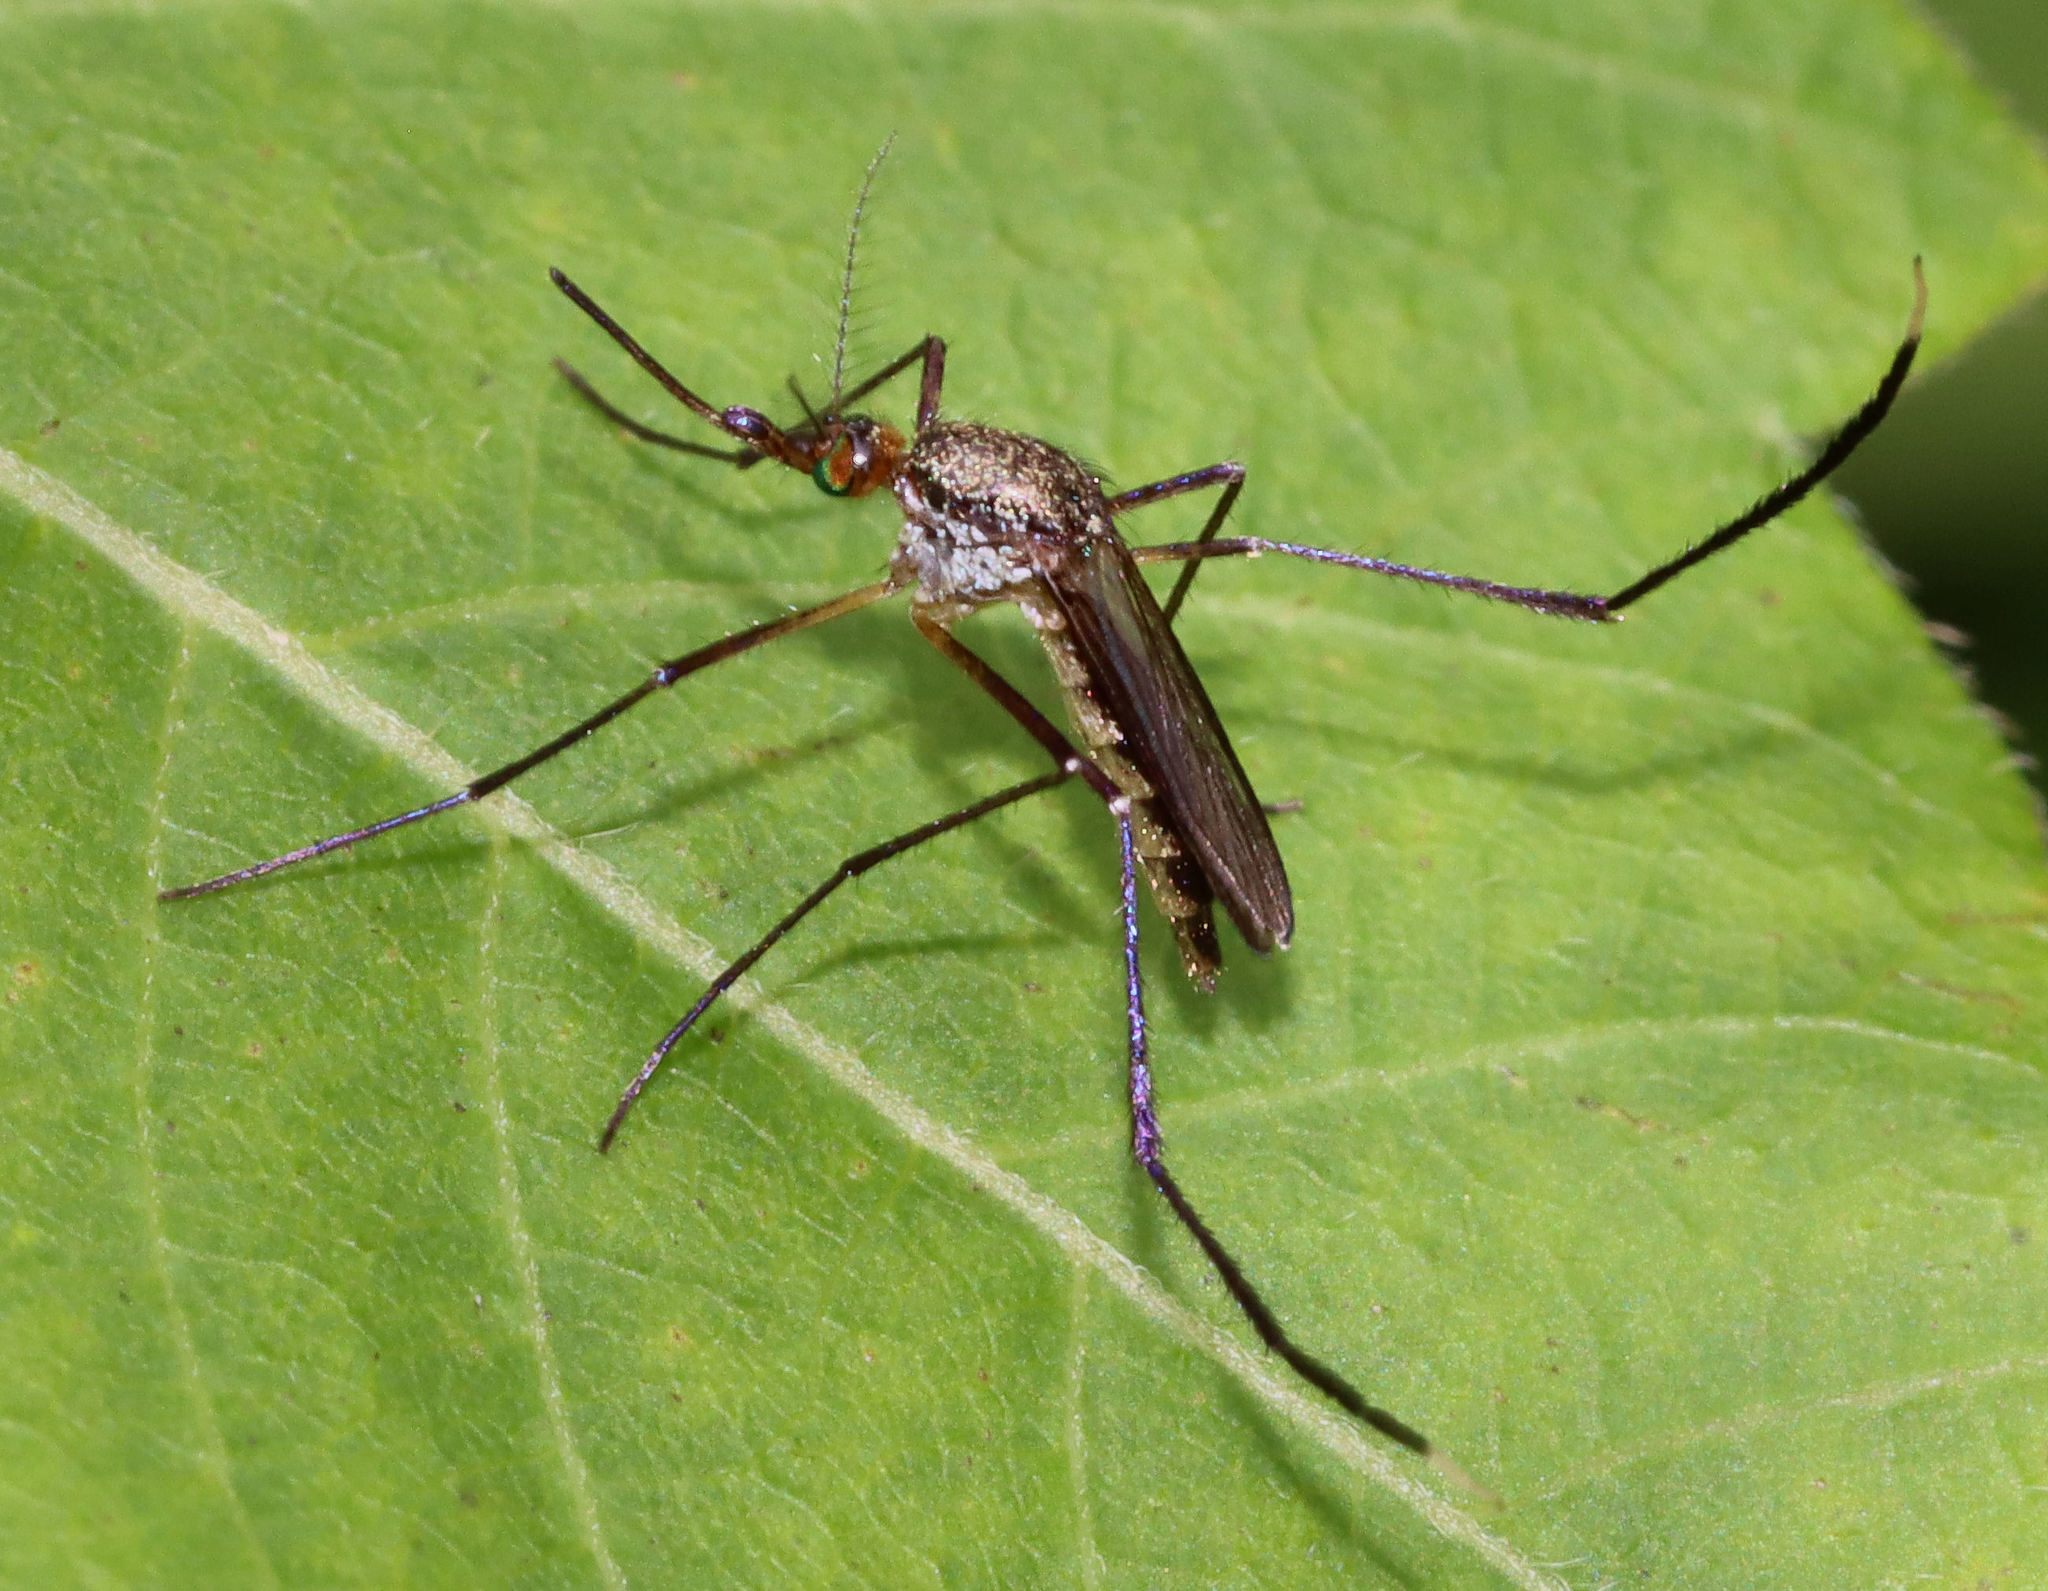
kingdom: Animalia
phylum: Arthropoda
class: Insecta
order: Diptera
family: Culicidae
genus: Psorophora
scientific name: Psorophora ferox
